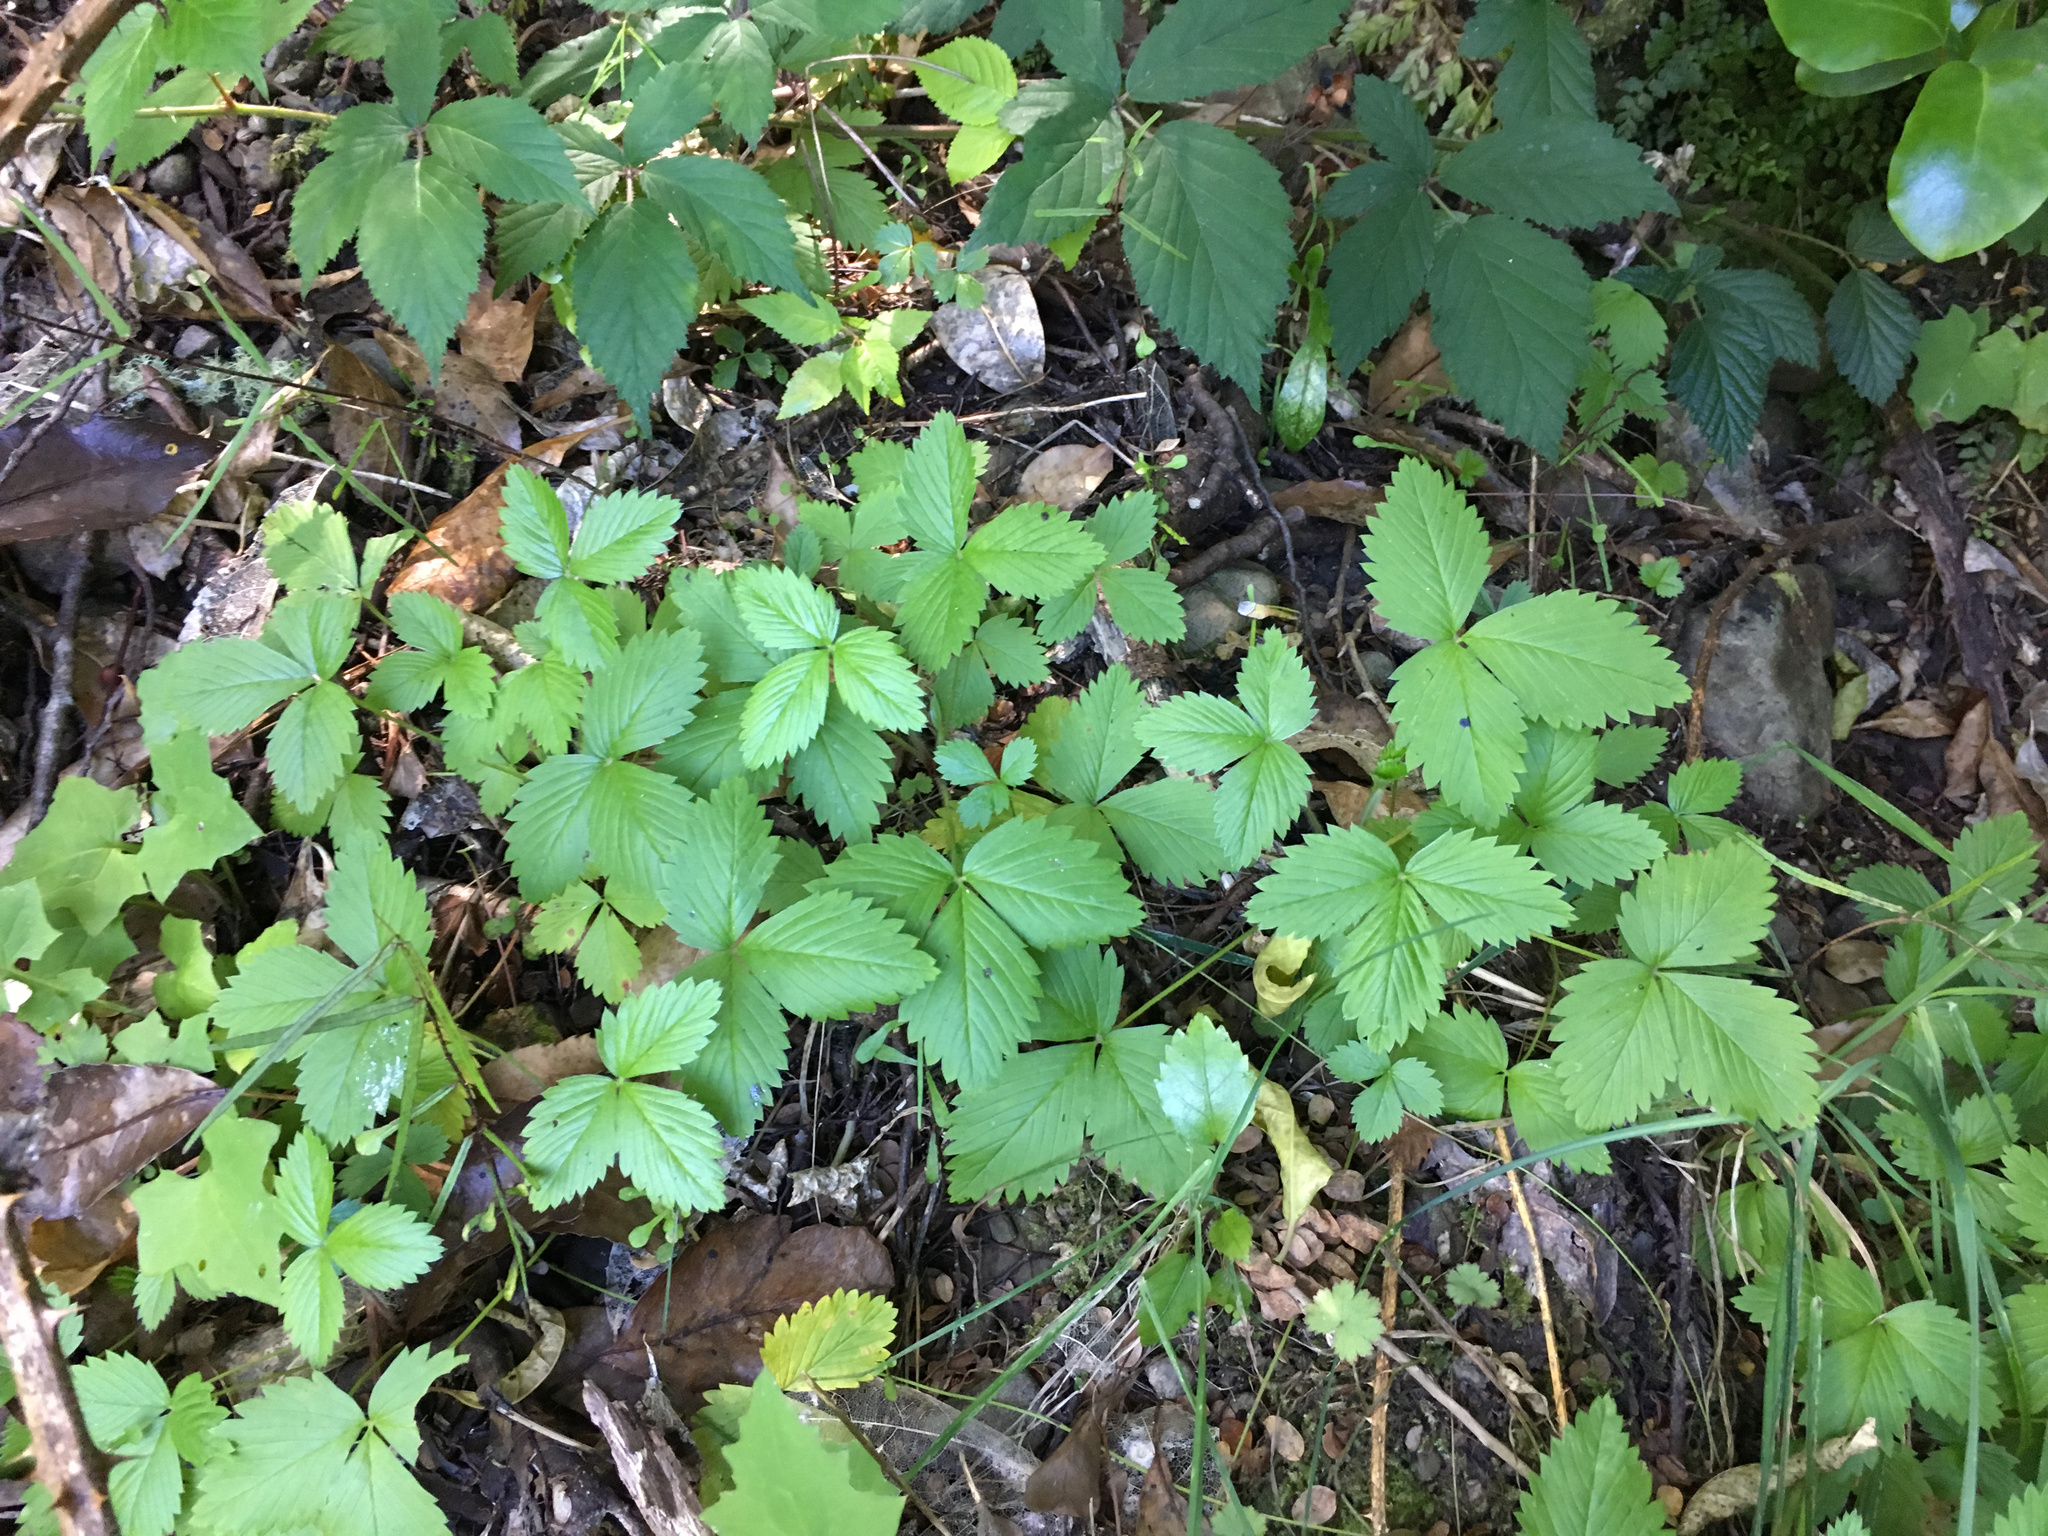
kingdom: Plantae
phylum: Tracheophyta
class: Magnoliopsida
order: Rosales
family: Rosaceae
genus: Potentilla
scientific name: Potentilla indica
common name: Yellow-flowered strawberry
